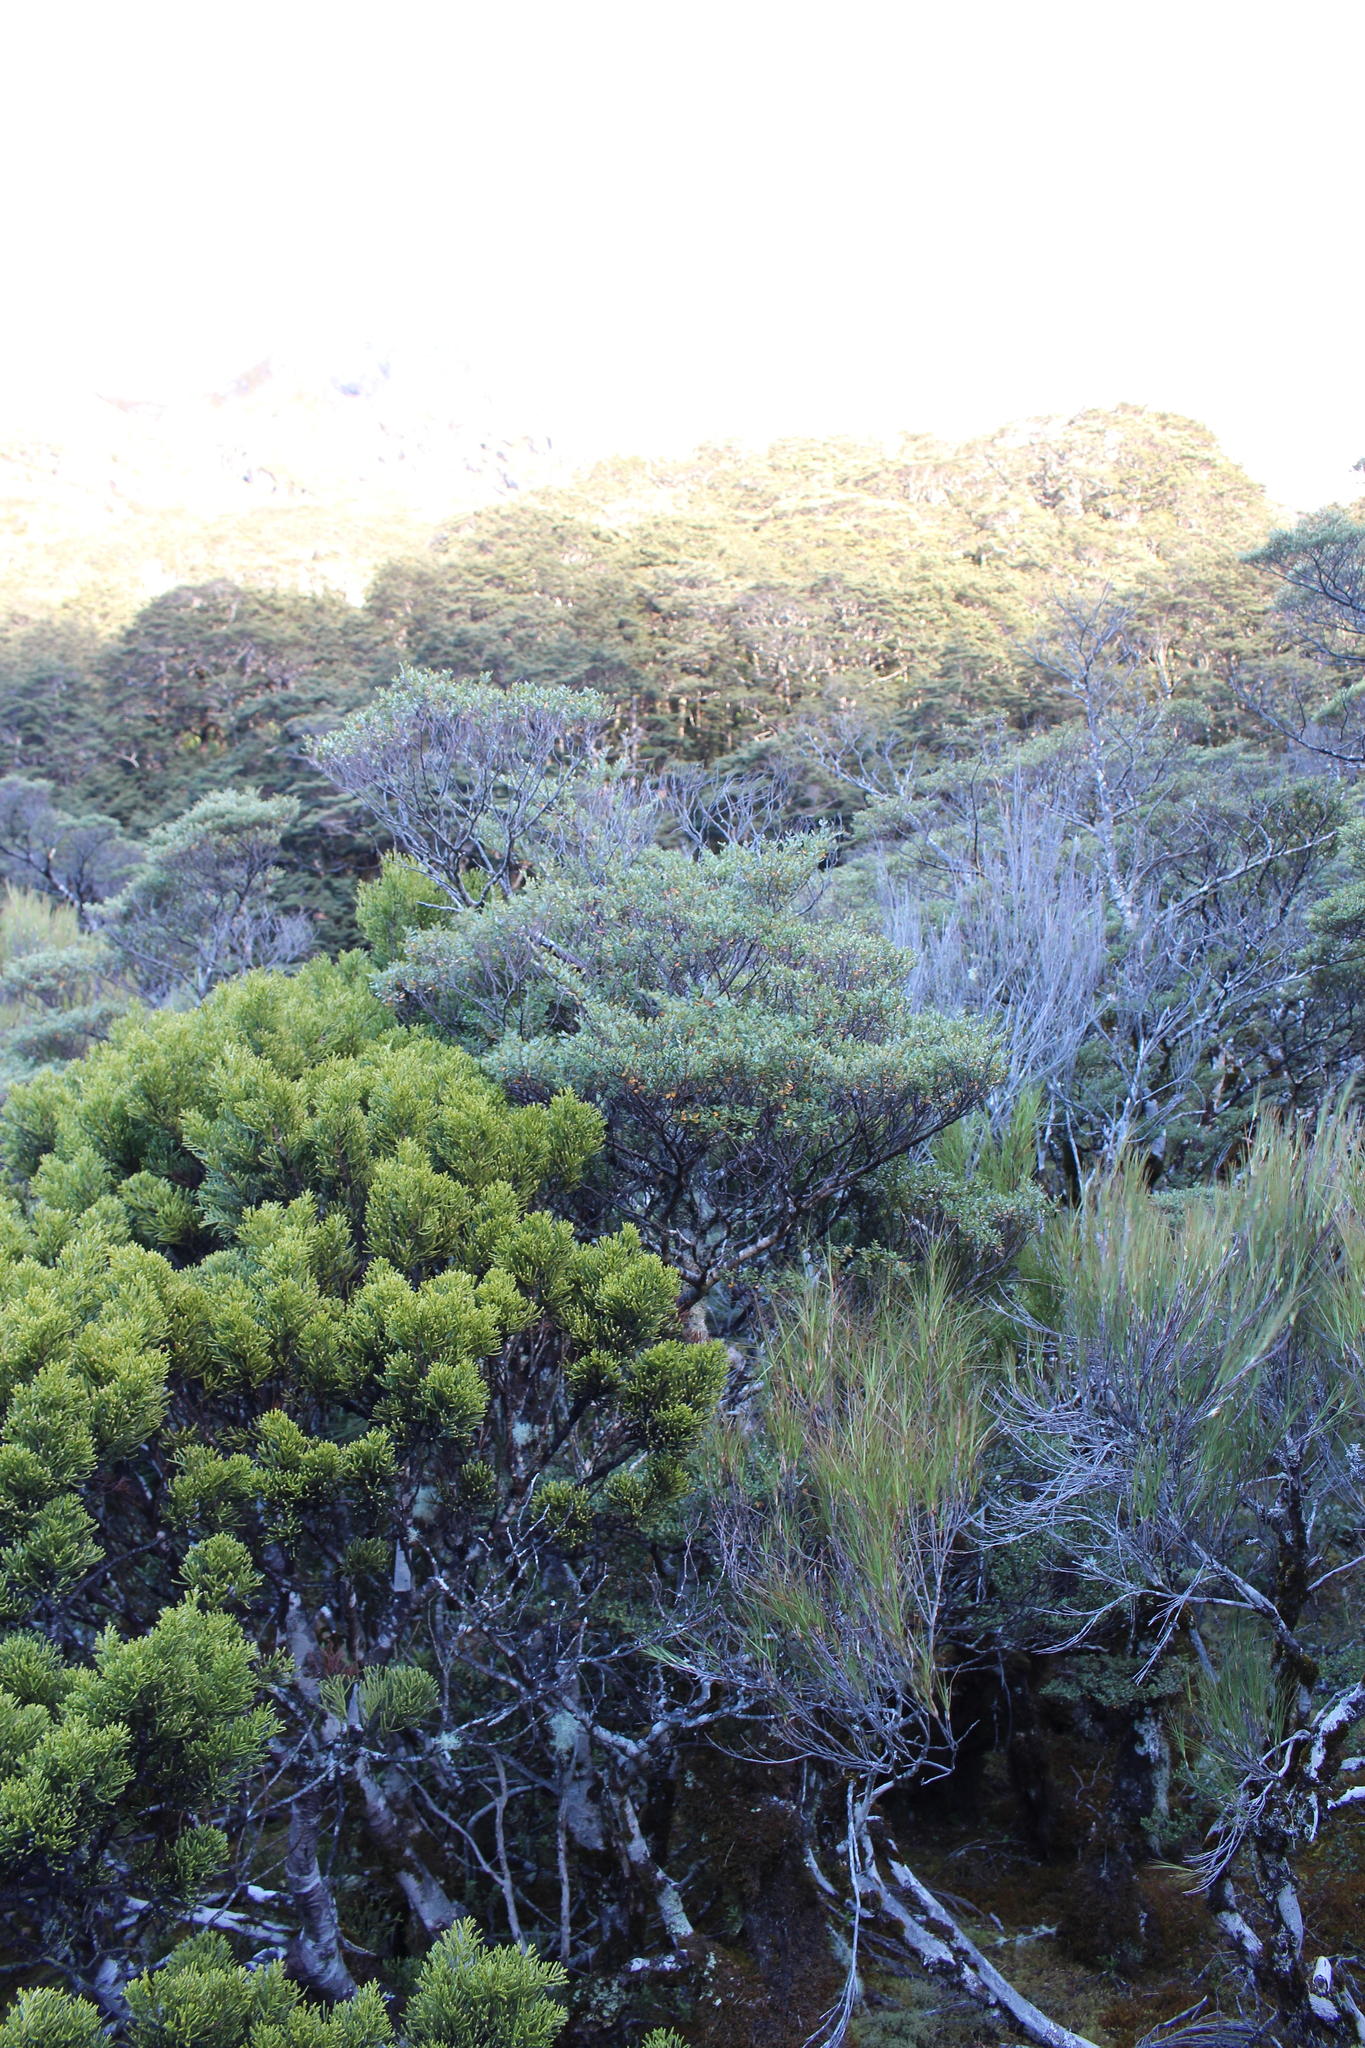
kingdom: Plantae
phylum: Tracheophyta
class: Pinopsida
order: Pinales
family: Podocarpaceae
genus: Halocarpus
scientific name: Halocarpus biformis
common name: Alpine tarwood
